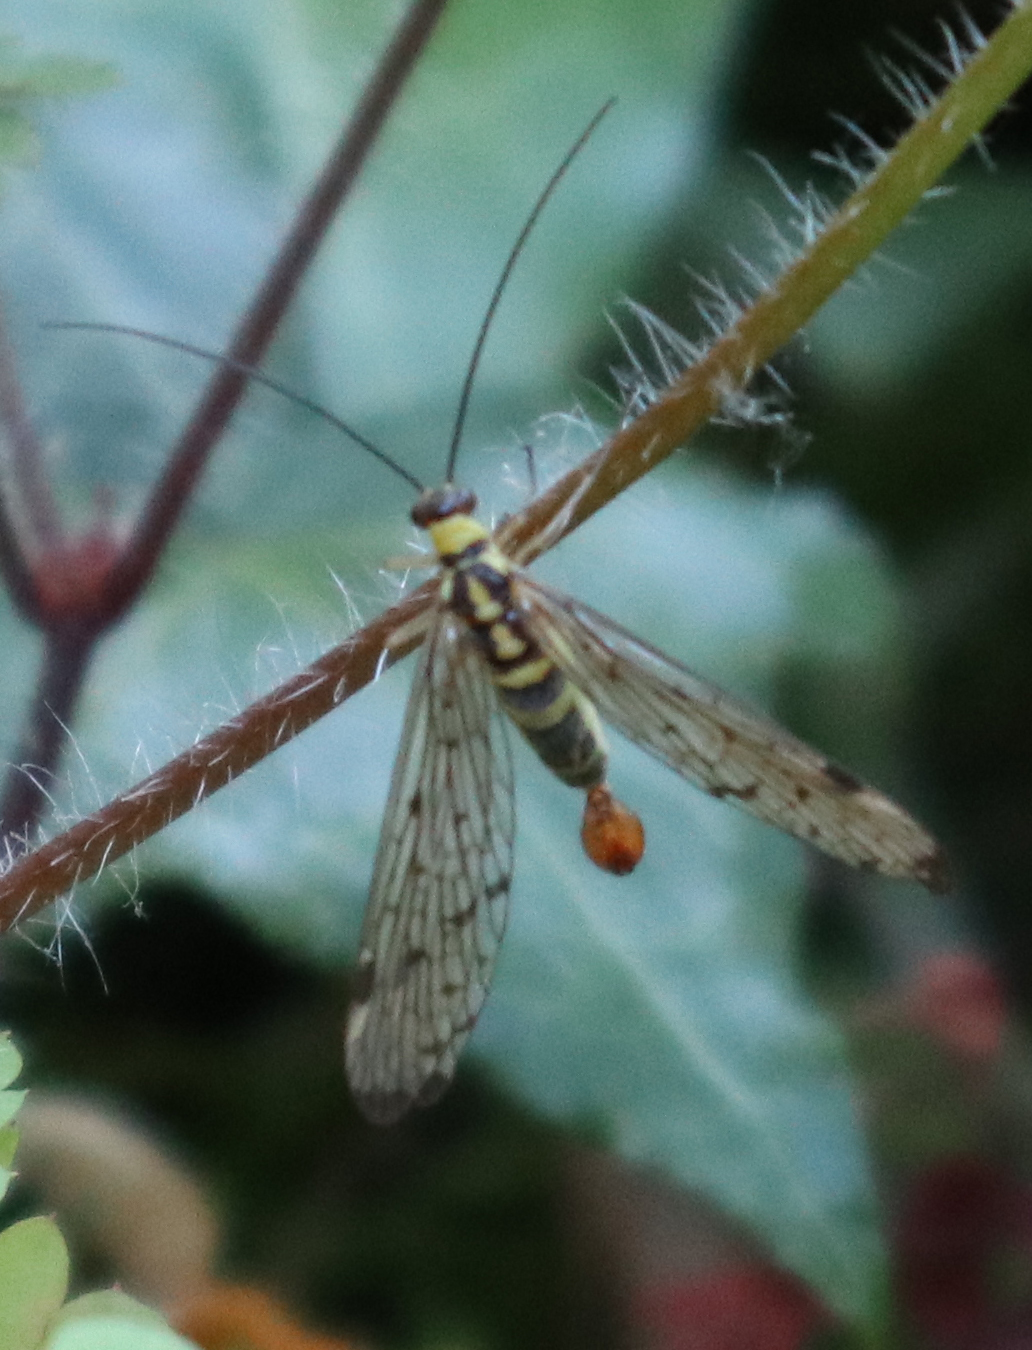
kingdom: Animalia
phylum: Arthropoda
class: Insecta
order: Mecoptera
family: Panorpidae
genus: Panorpa
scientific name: Panorpa germanica
